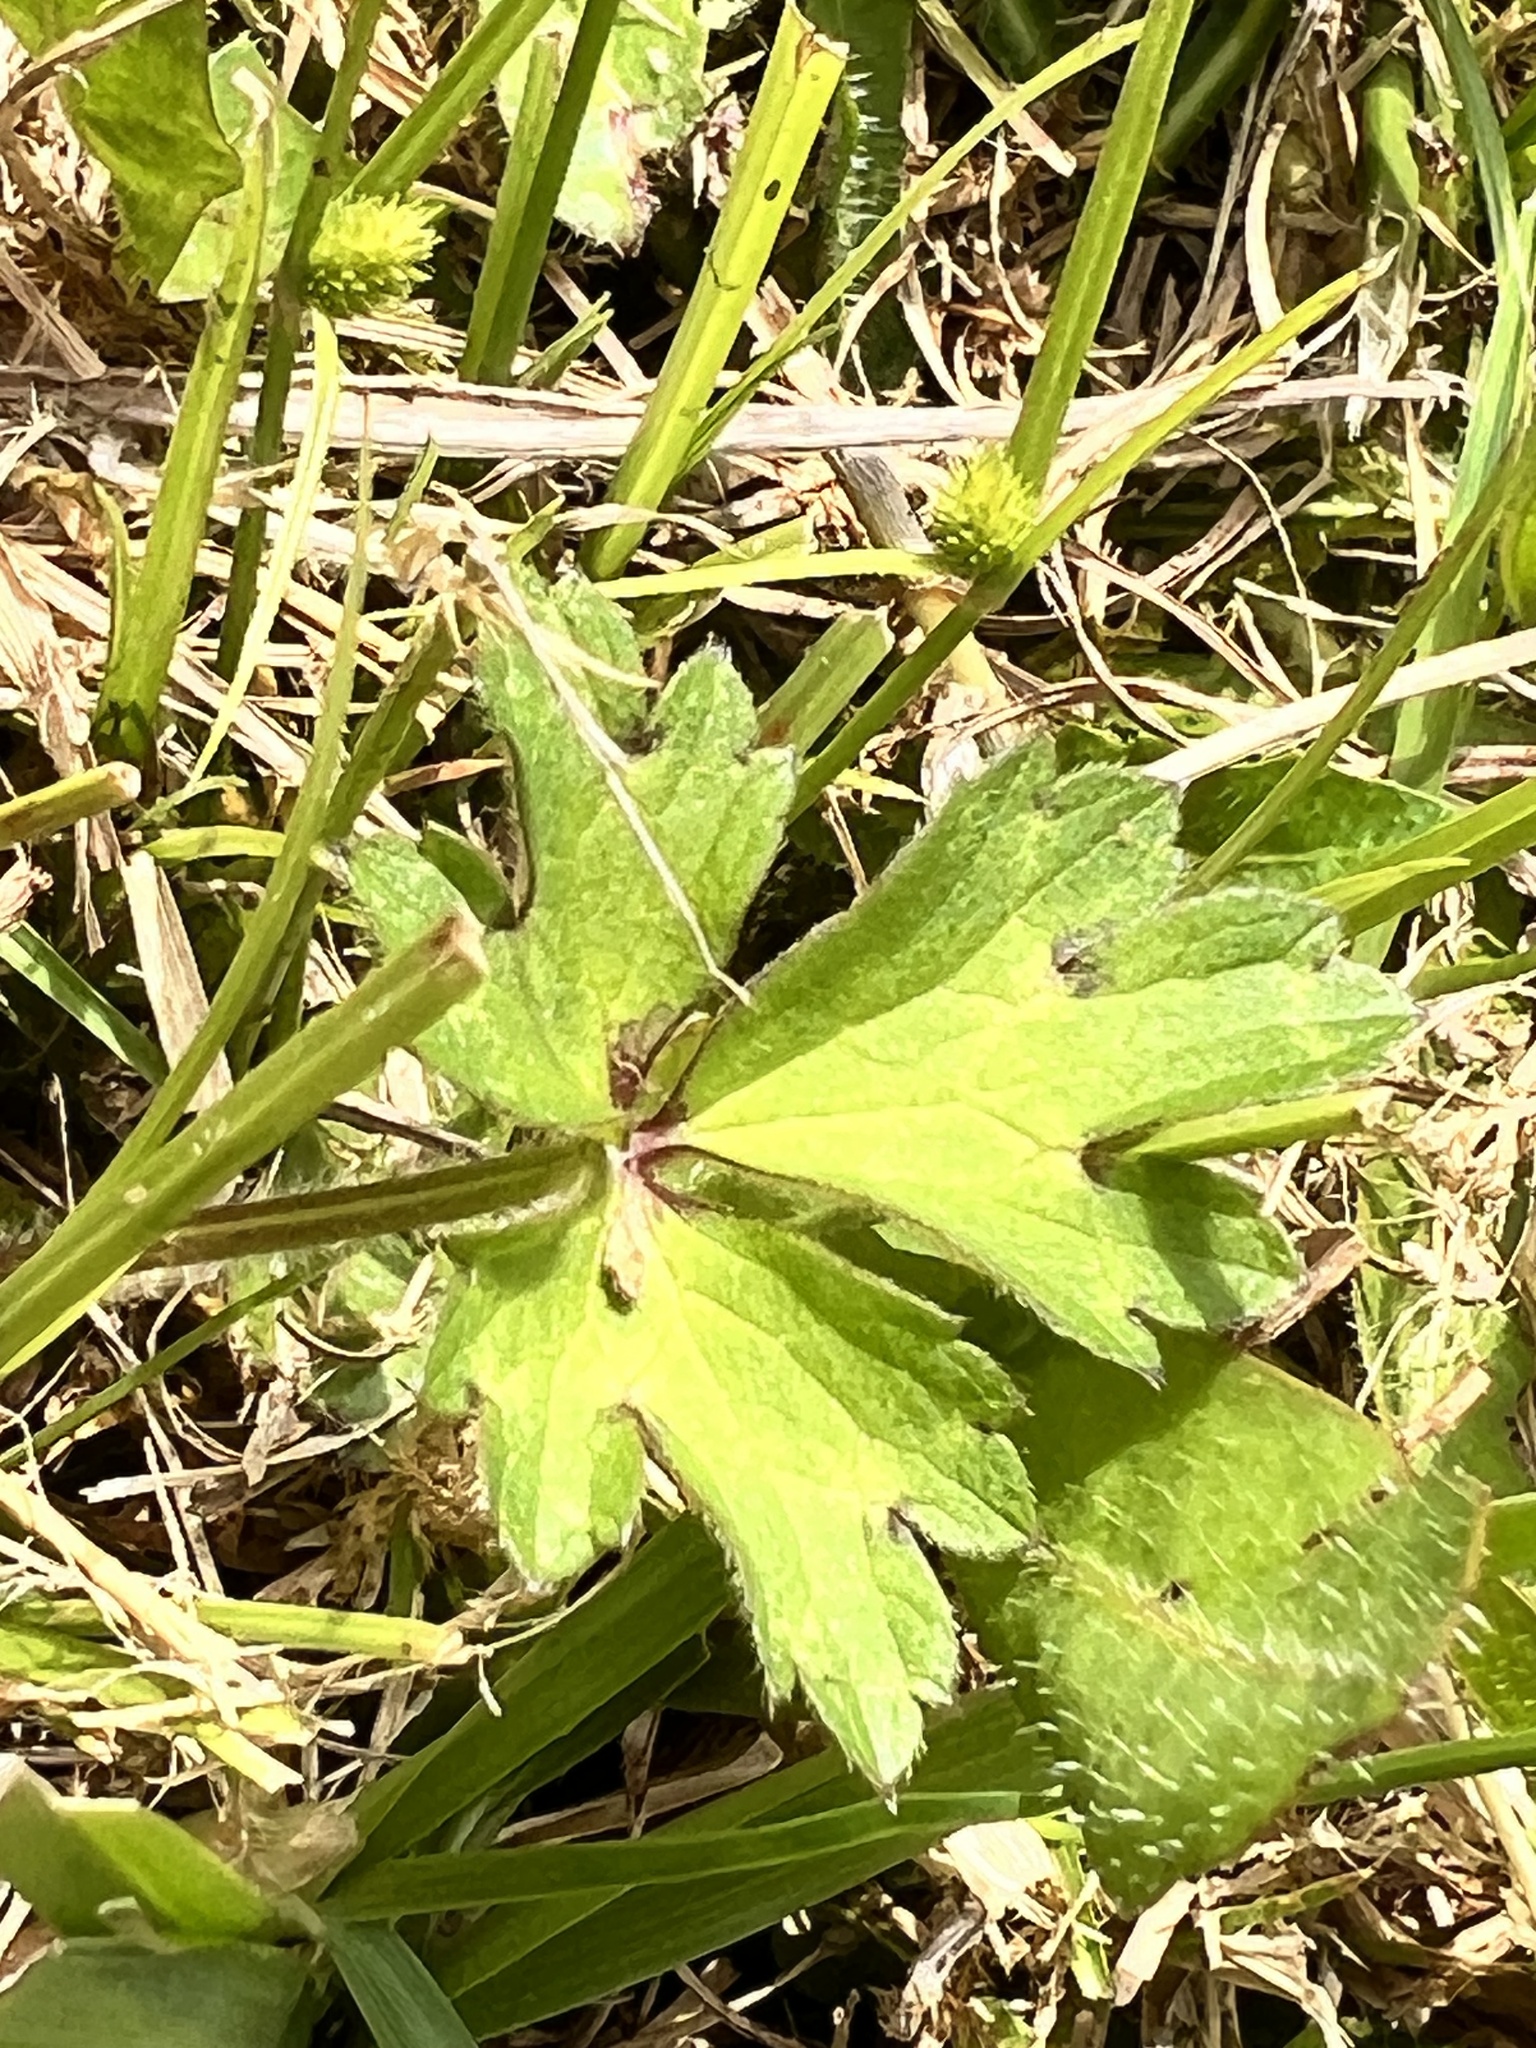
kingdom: Plantae
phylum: Tracheophyta
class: Magnoliopsida
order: Ranunculales
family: Ranunculaceae
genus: Ranunculus
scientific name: Ranunculus repens
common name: Creeping buttercup
